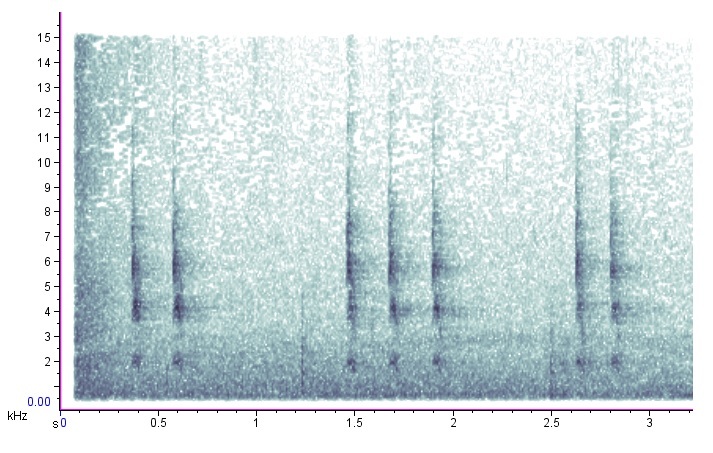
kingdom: Animalia
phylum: Chordata
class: Aves
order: Passeriformes
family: Troglodytidae
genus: Troglodytes
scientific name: Troglodytes hiemalis
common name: Winter wren
